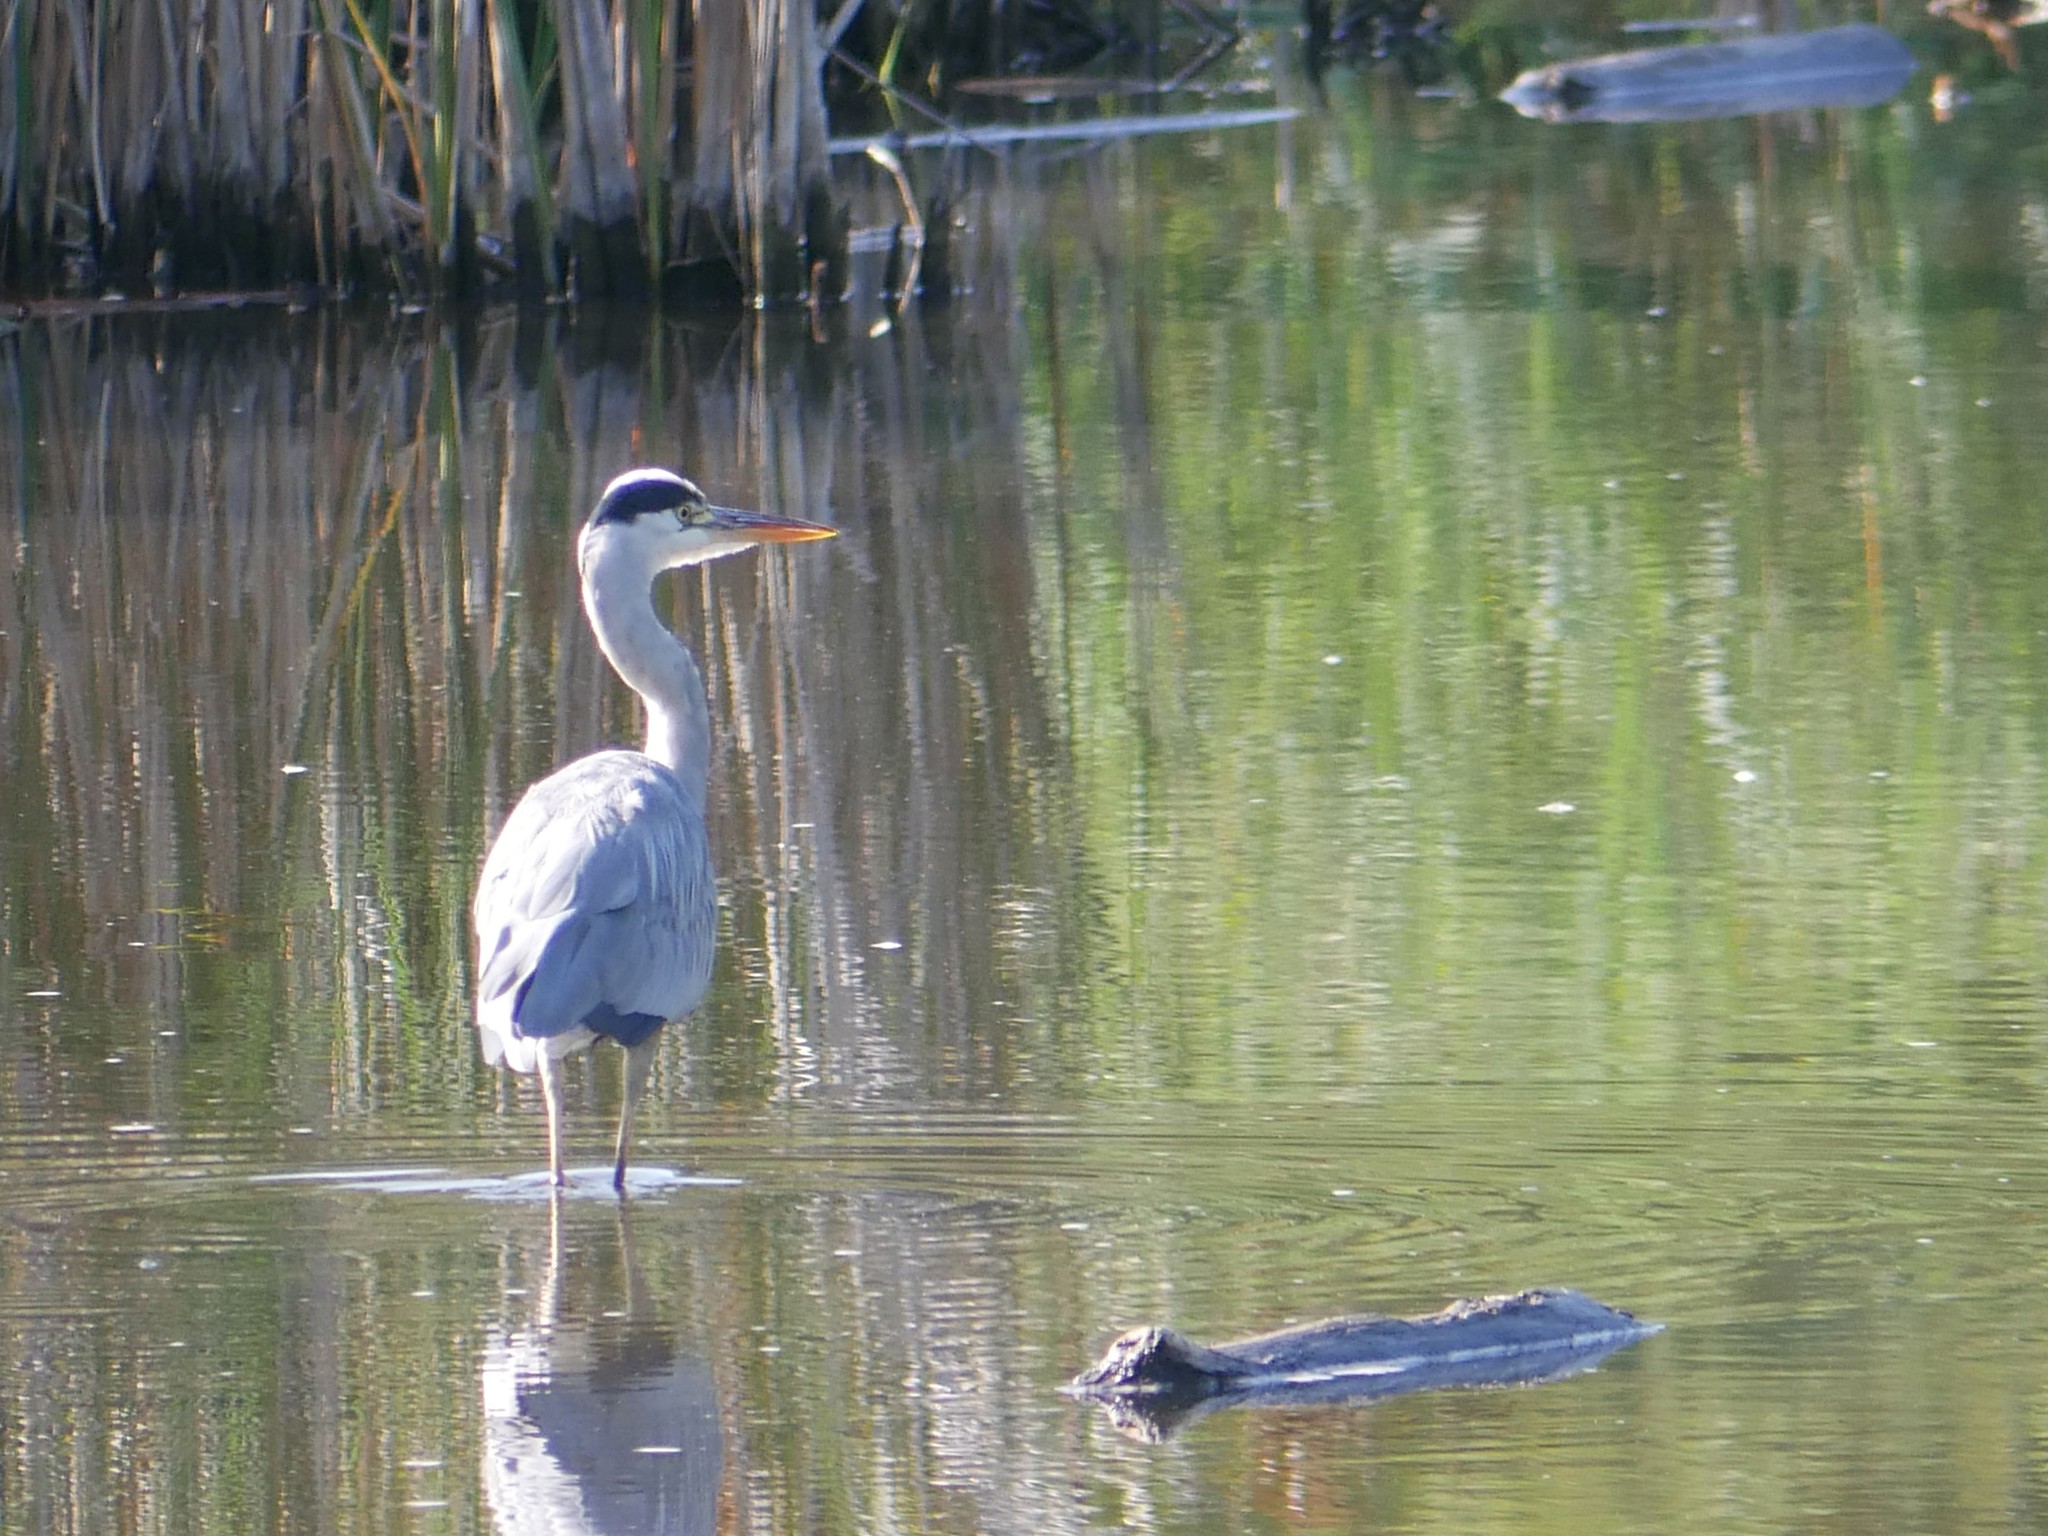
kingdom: Animalia
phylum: Chordata
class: Aves
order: Pelecaniformes
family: Ardeidae
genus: Ardea
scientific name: Ardea cinerea
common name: Grey heron
